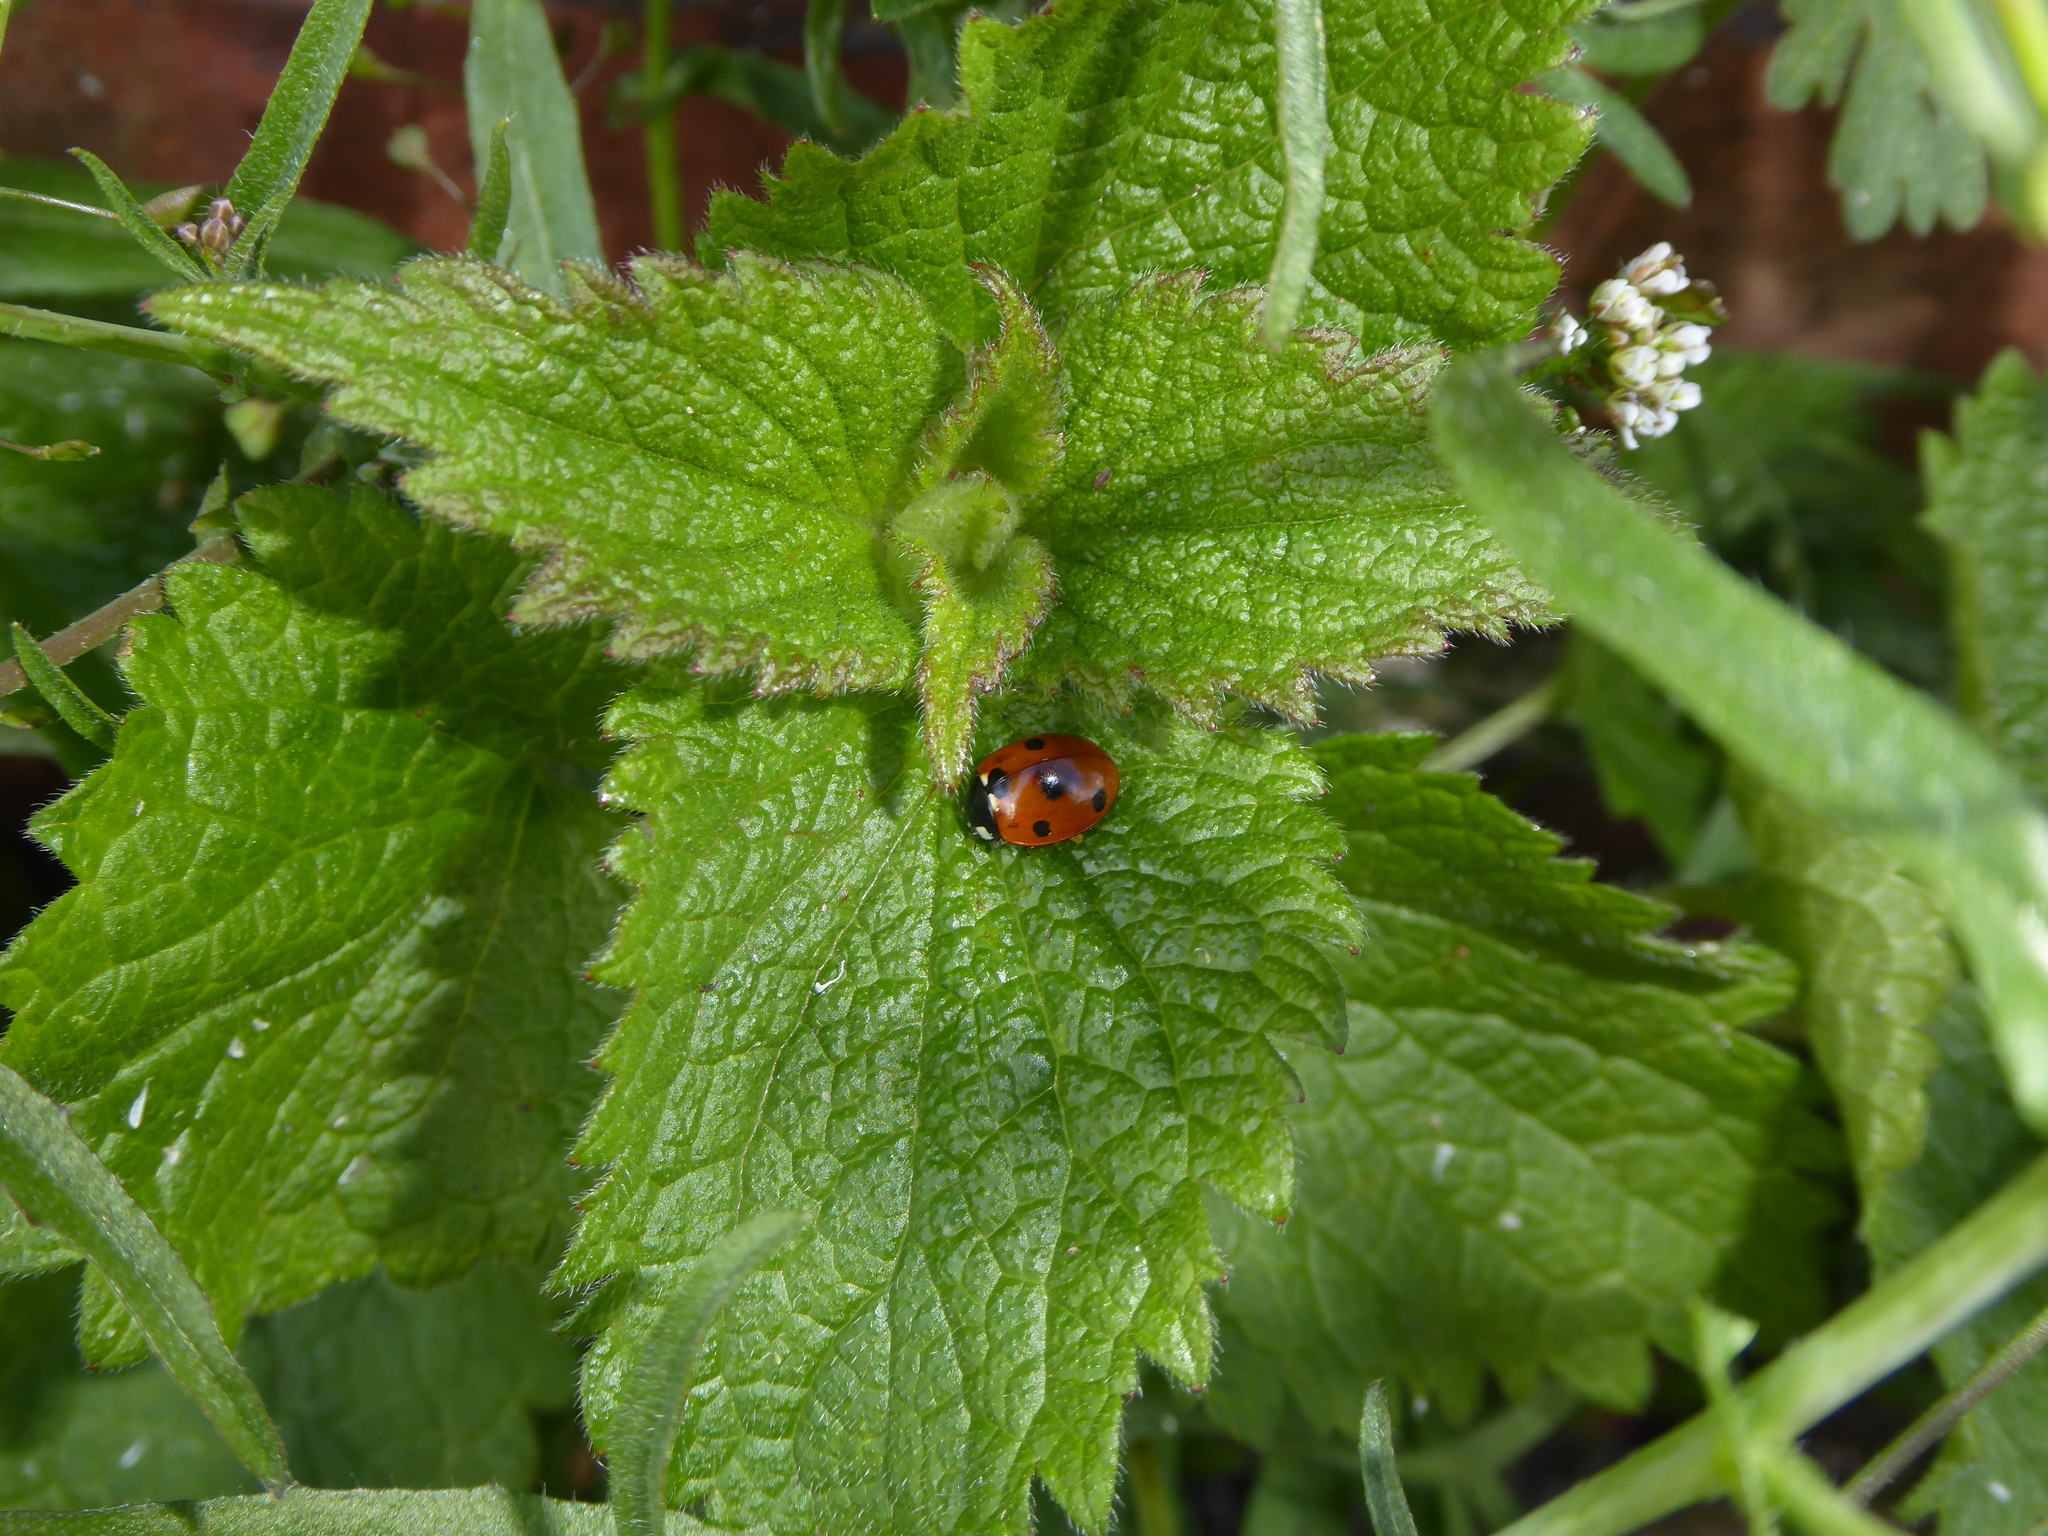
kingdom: Animalia
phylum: Arthropoda
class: Insecta
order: Coleoptera
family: Coccinellidae
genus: Coccinella
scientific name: Coccinella septempunctata
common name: Sevenspotted lady beetle
